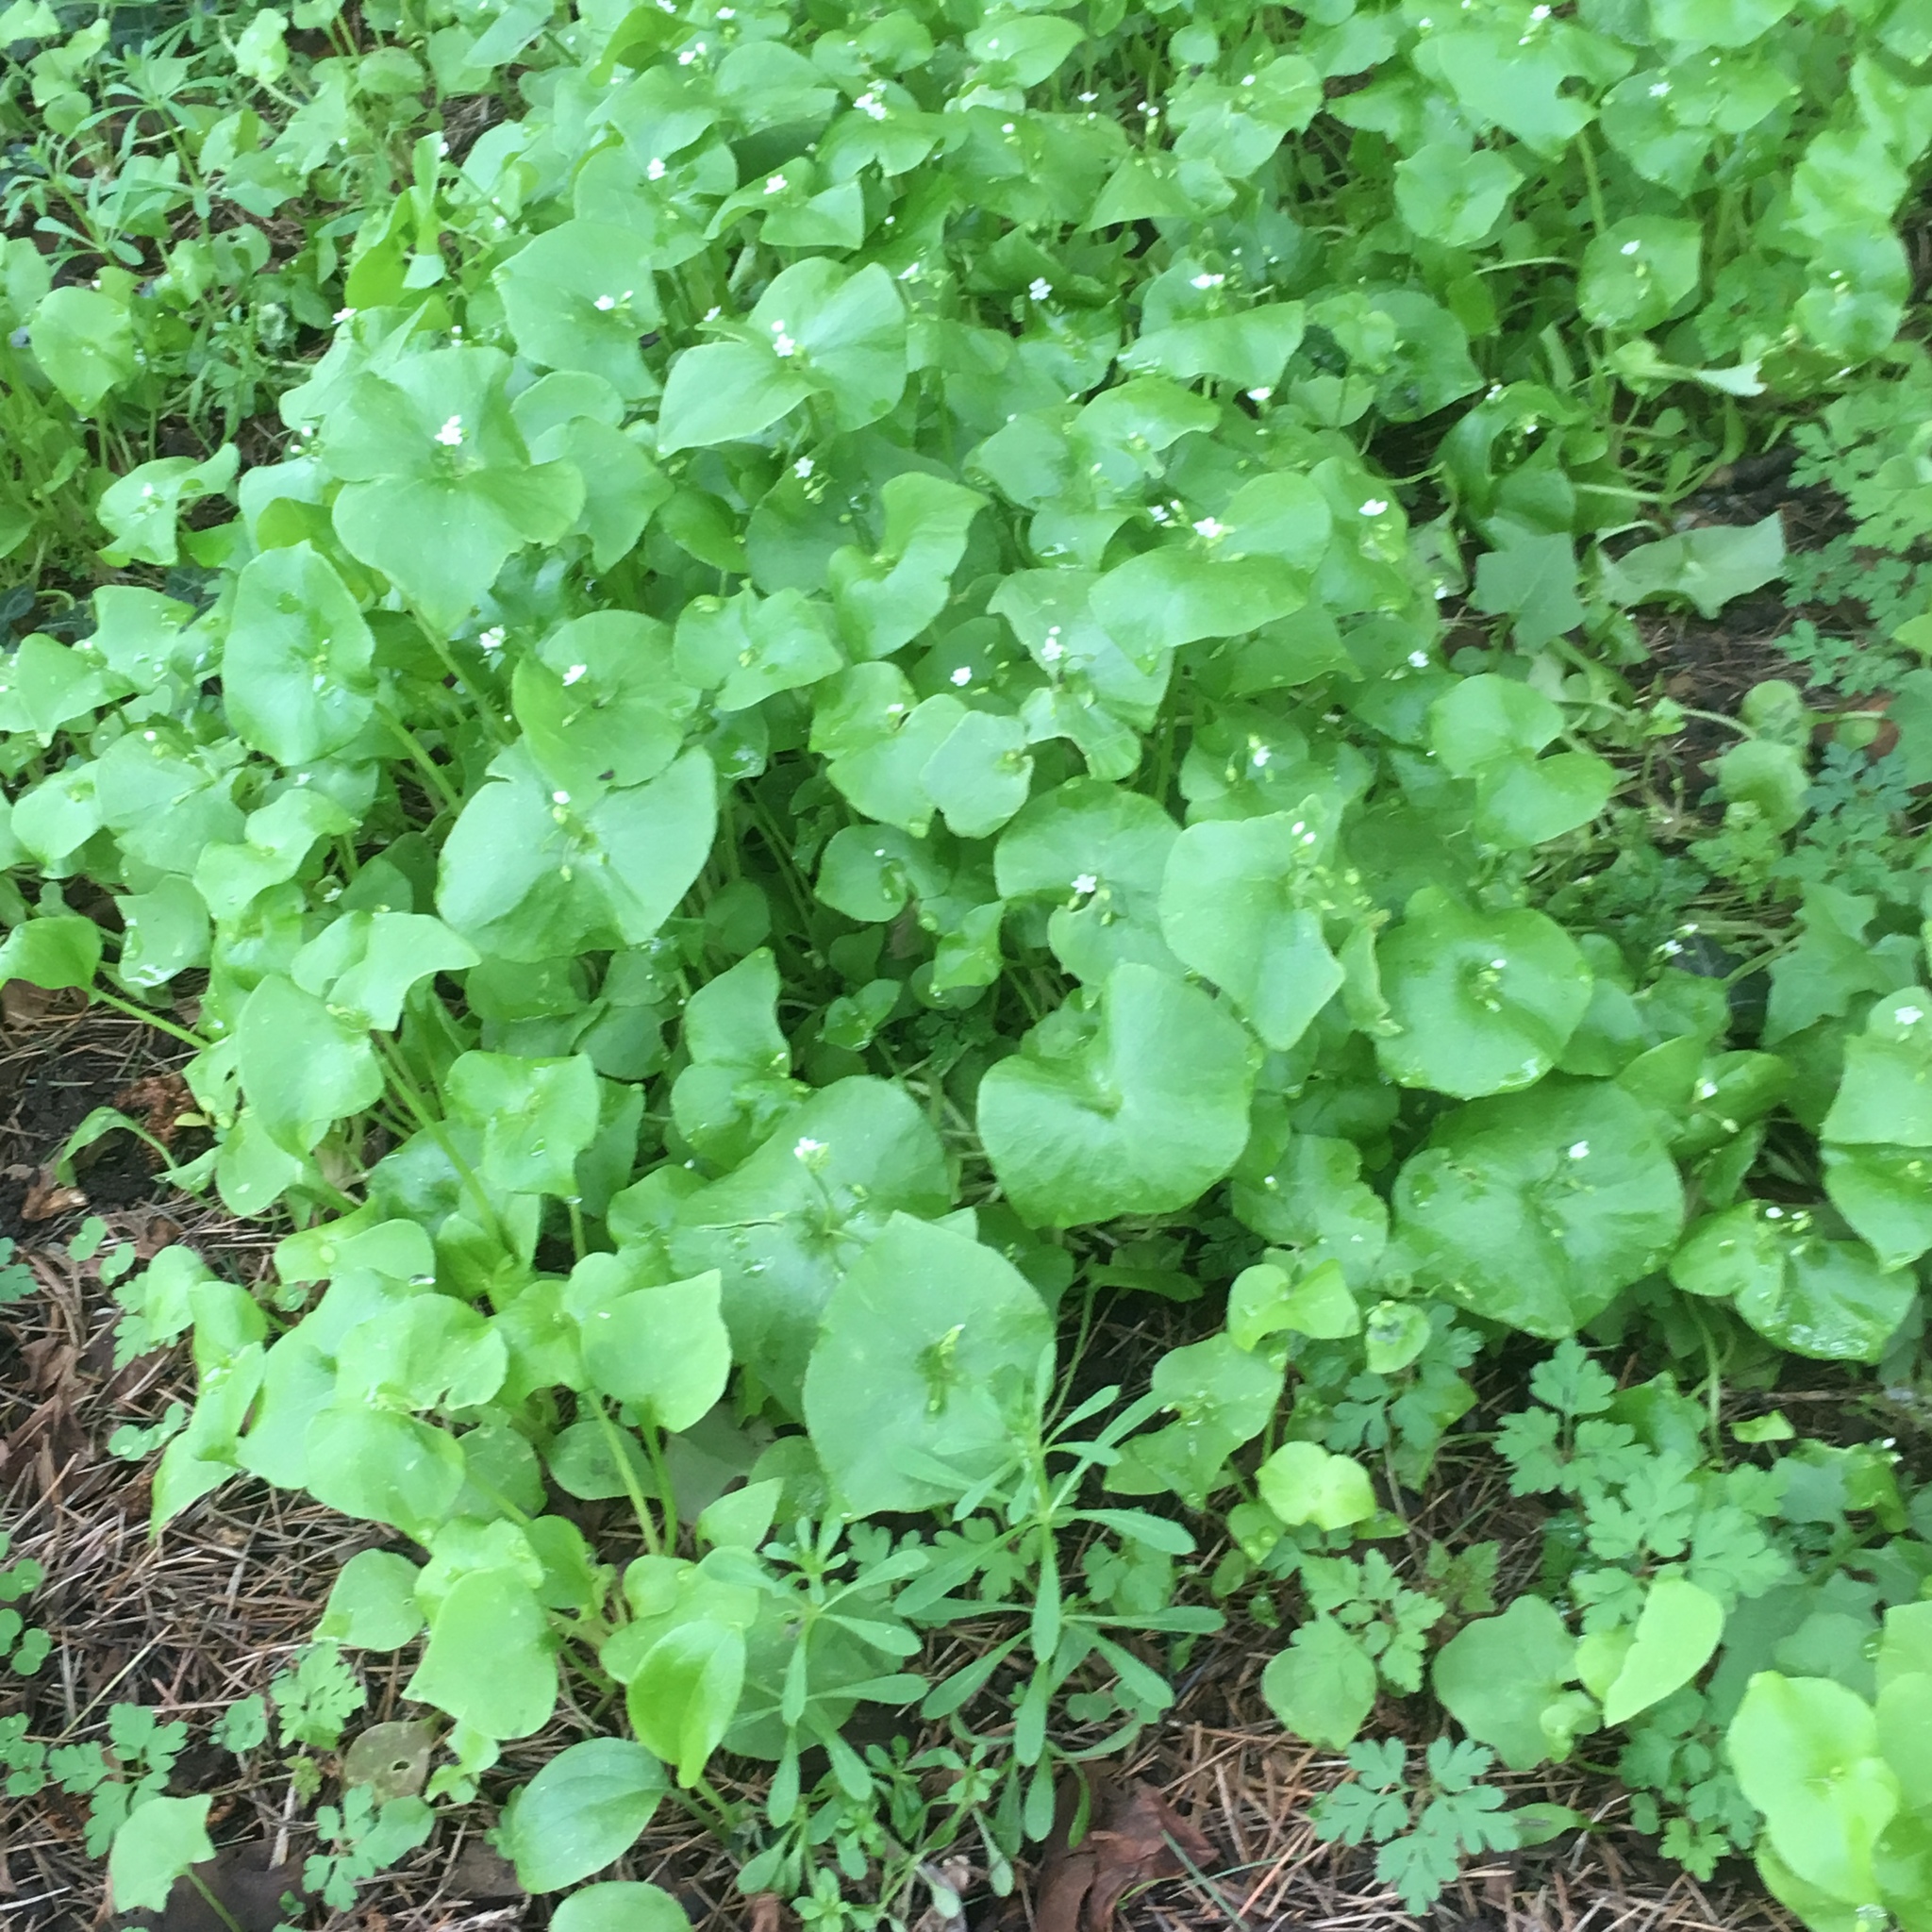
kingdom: Plantae
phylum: Tracheophyta
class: Magnoliopsida
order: Caryophyllales
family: Montiaceae
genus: Claytonia
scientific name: Claytonia perfoliata
